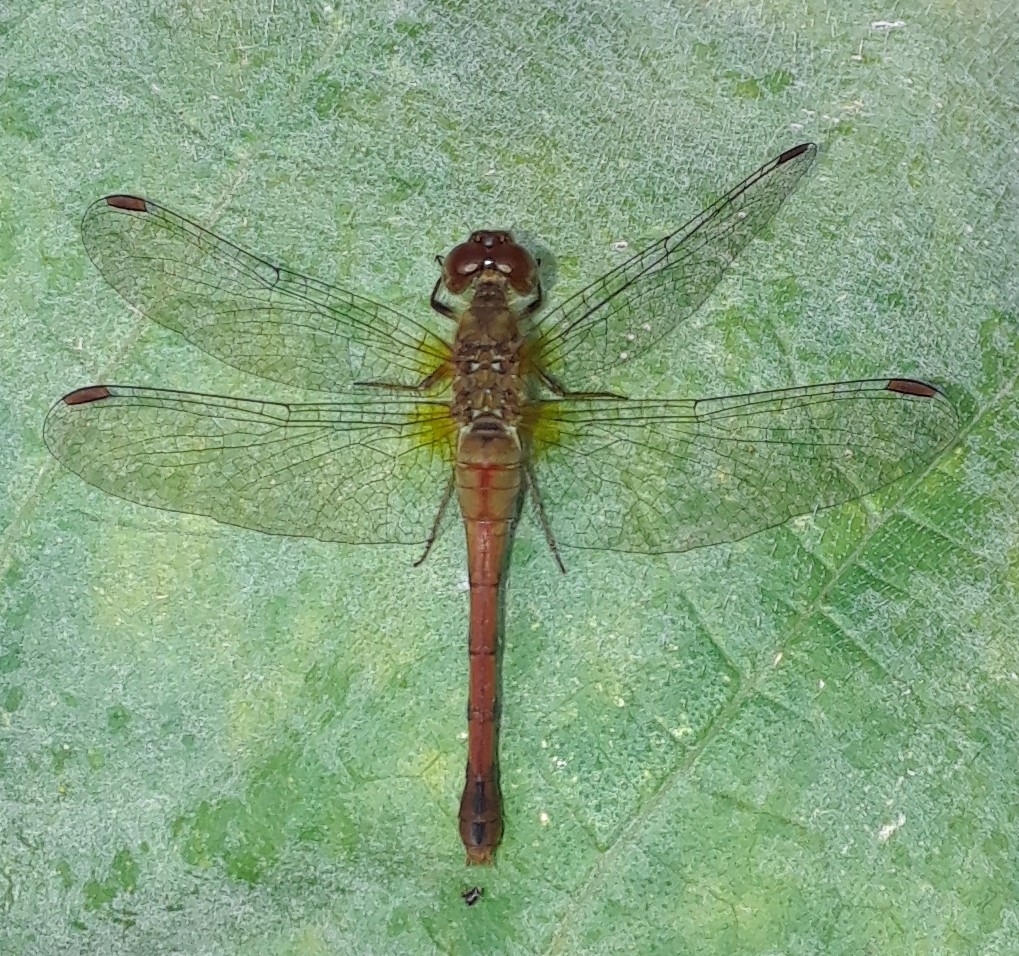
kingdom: Animalia
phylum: Arthropoda
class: Insecta
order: Odonata
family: Libellulidae
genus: Sympetrum
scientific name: Sympetrum vicinum
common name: Autumn meadowhawk
